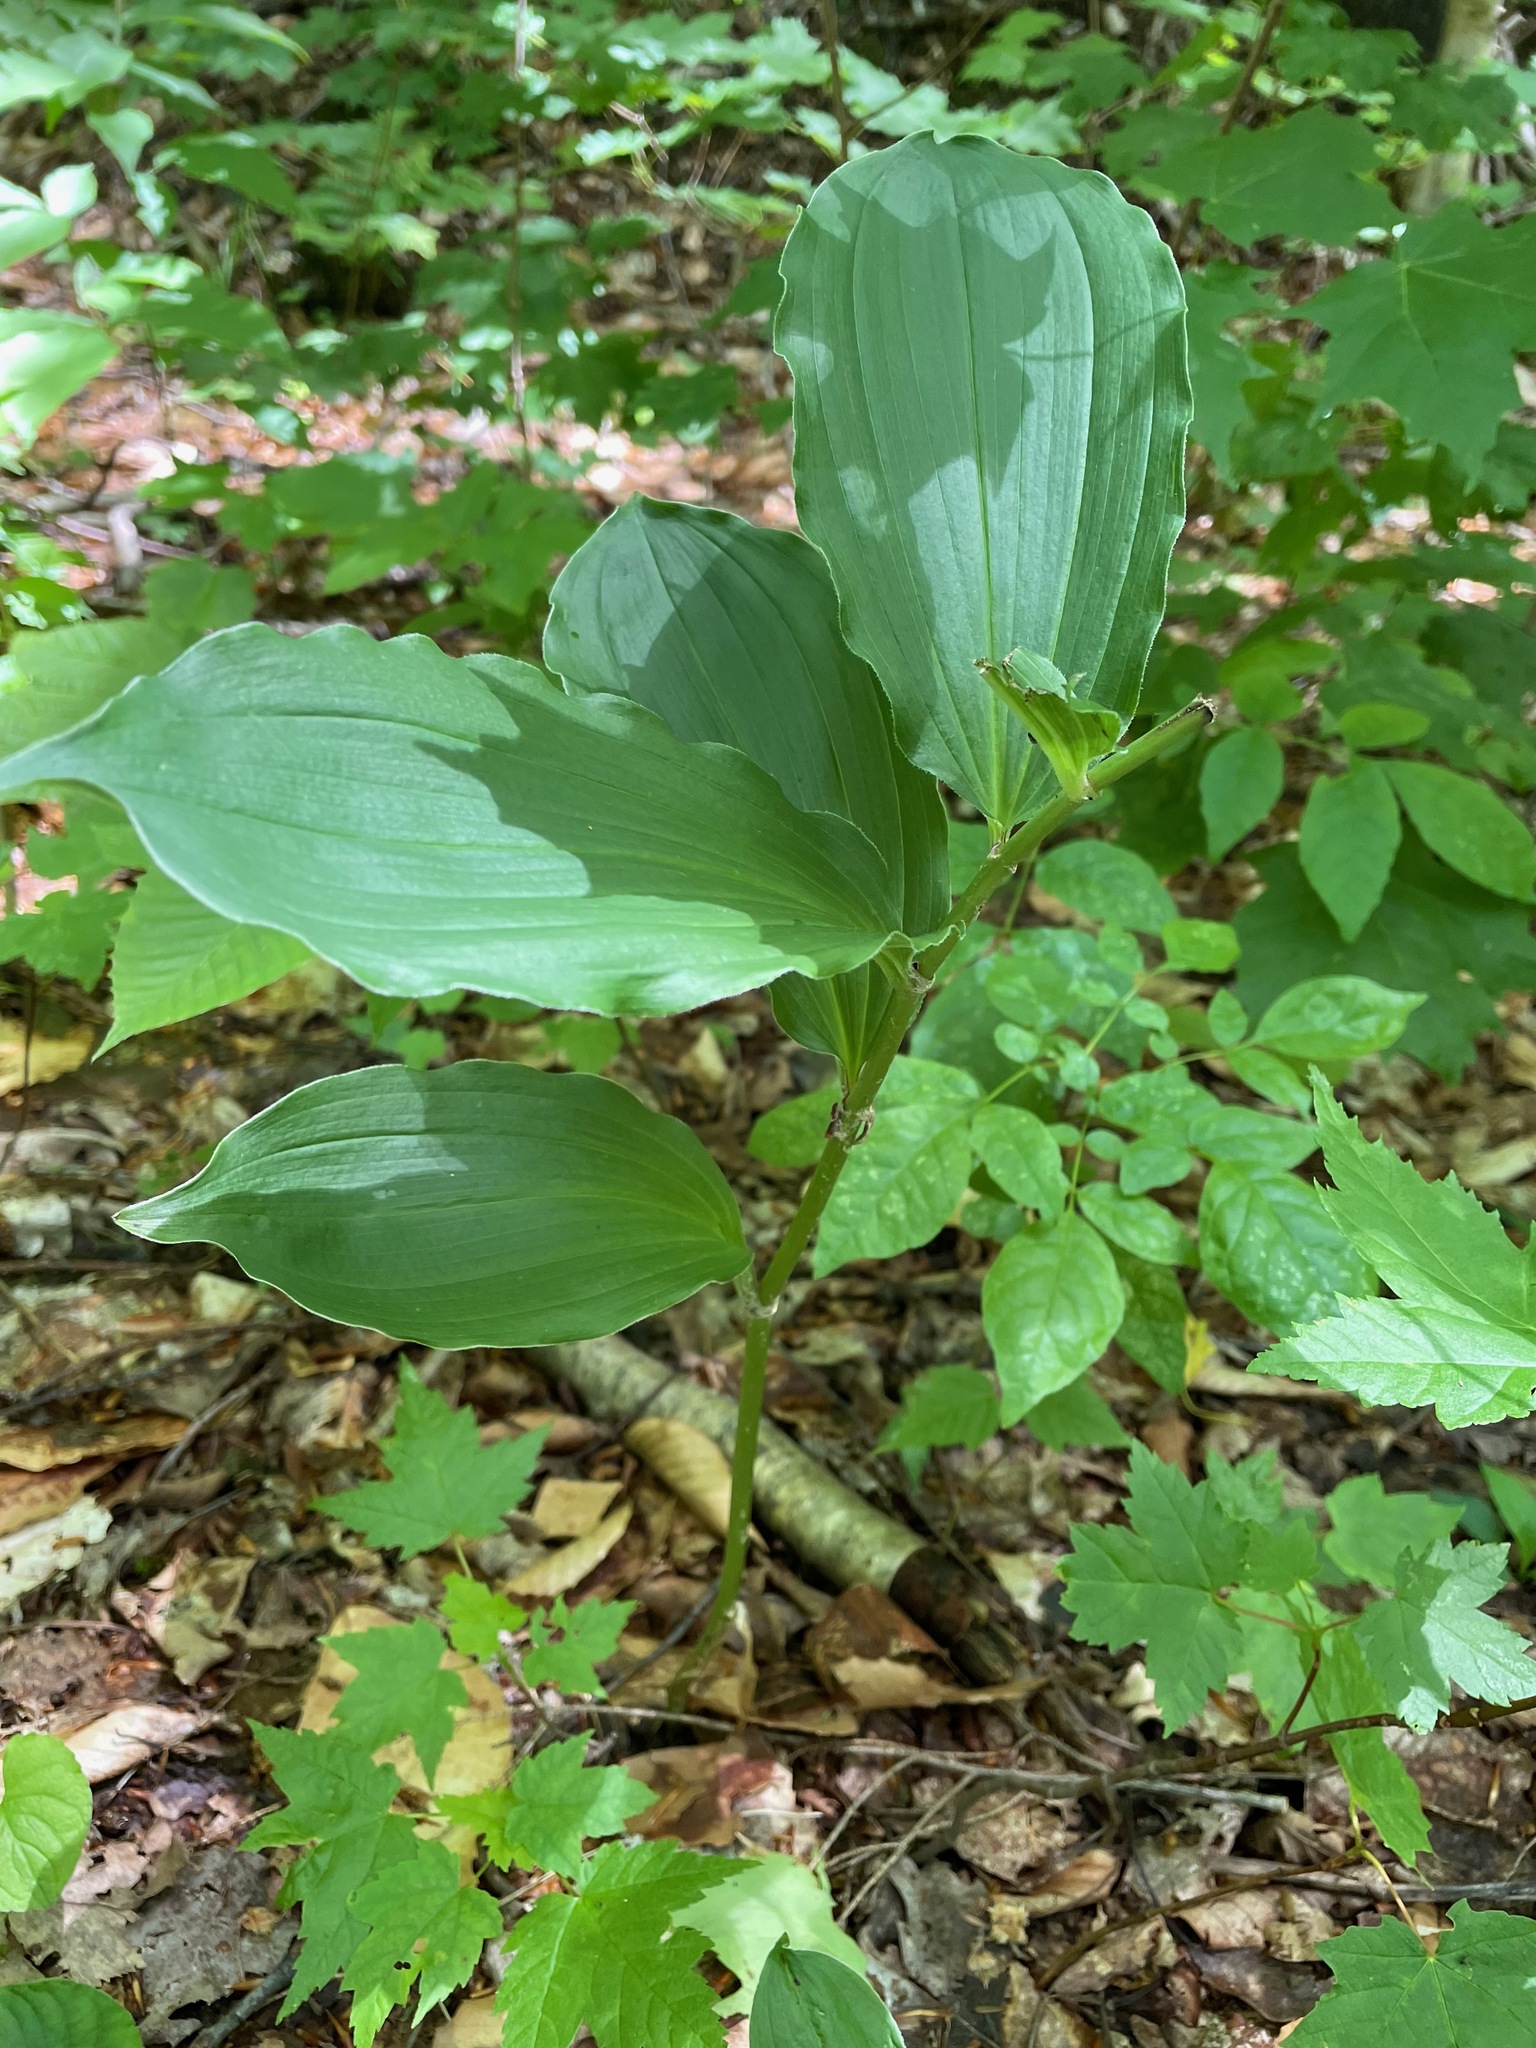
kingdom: Plantae
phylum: Tracheophyta
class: Liliopsida
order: Asparagales
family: Asparagaceae
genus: Maianthemum
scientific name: Maianthemum racemosum
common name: False spikenard
